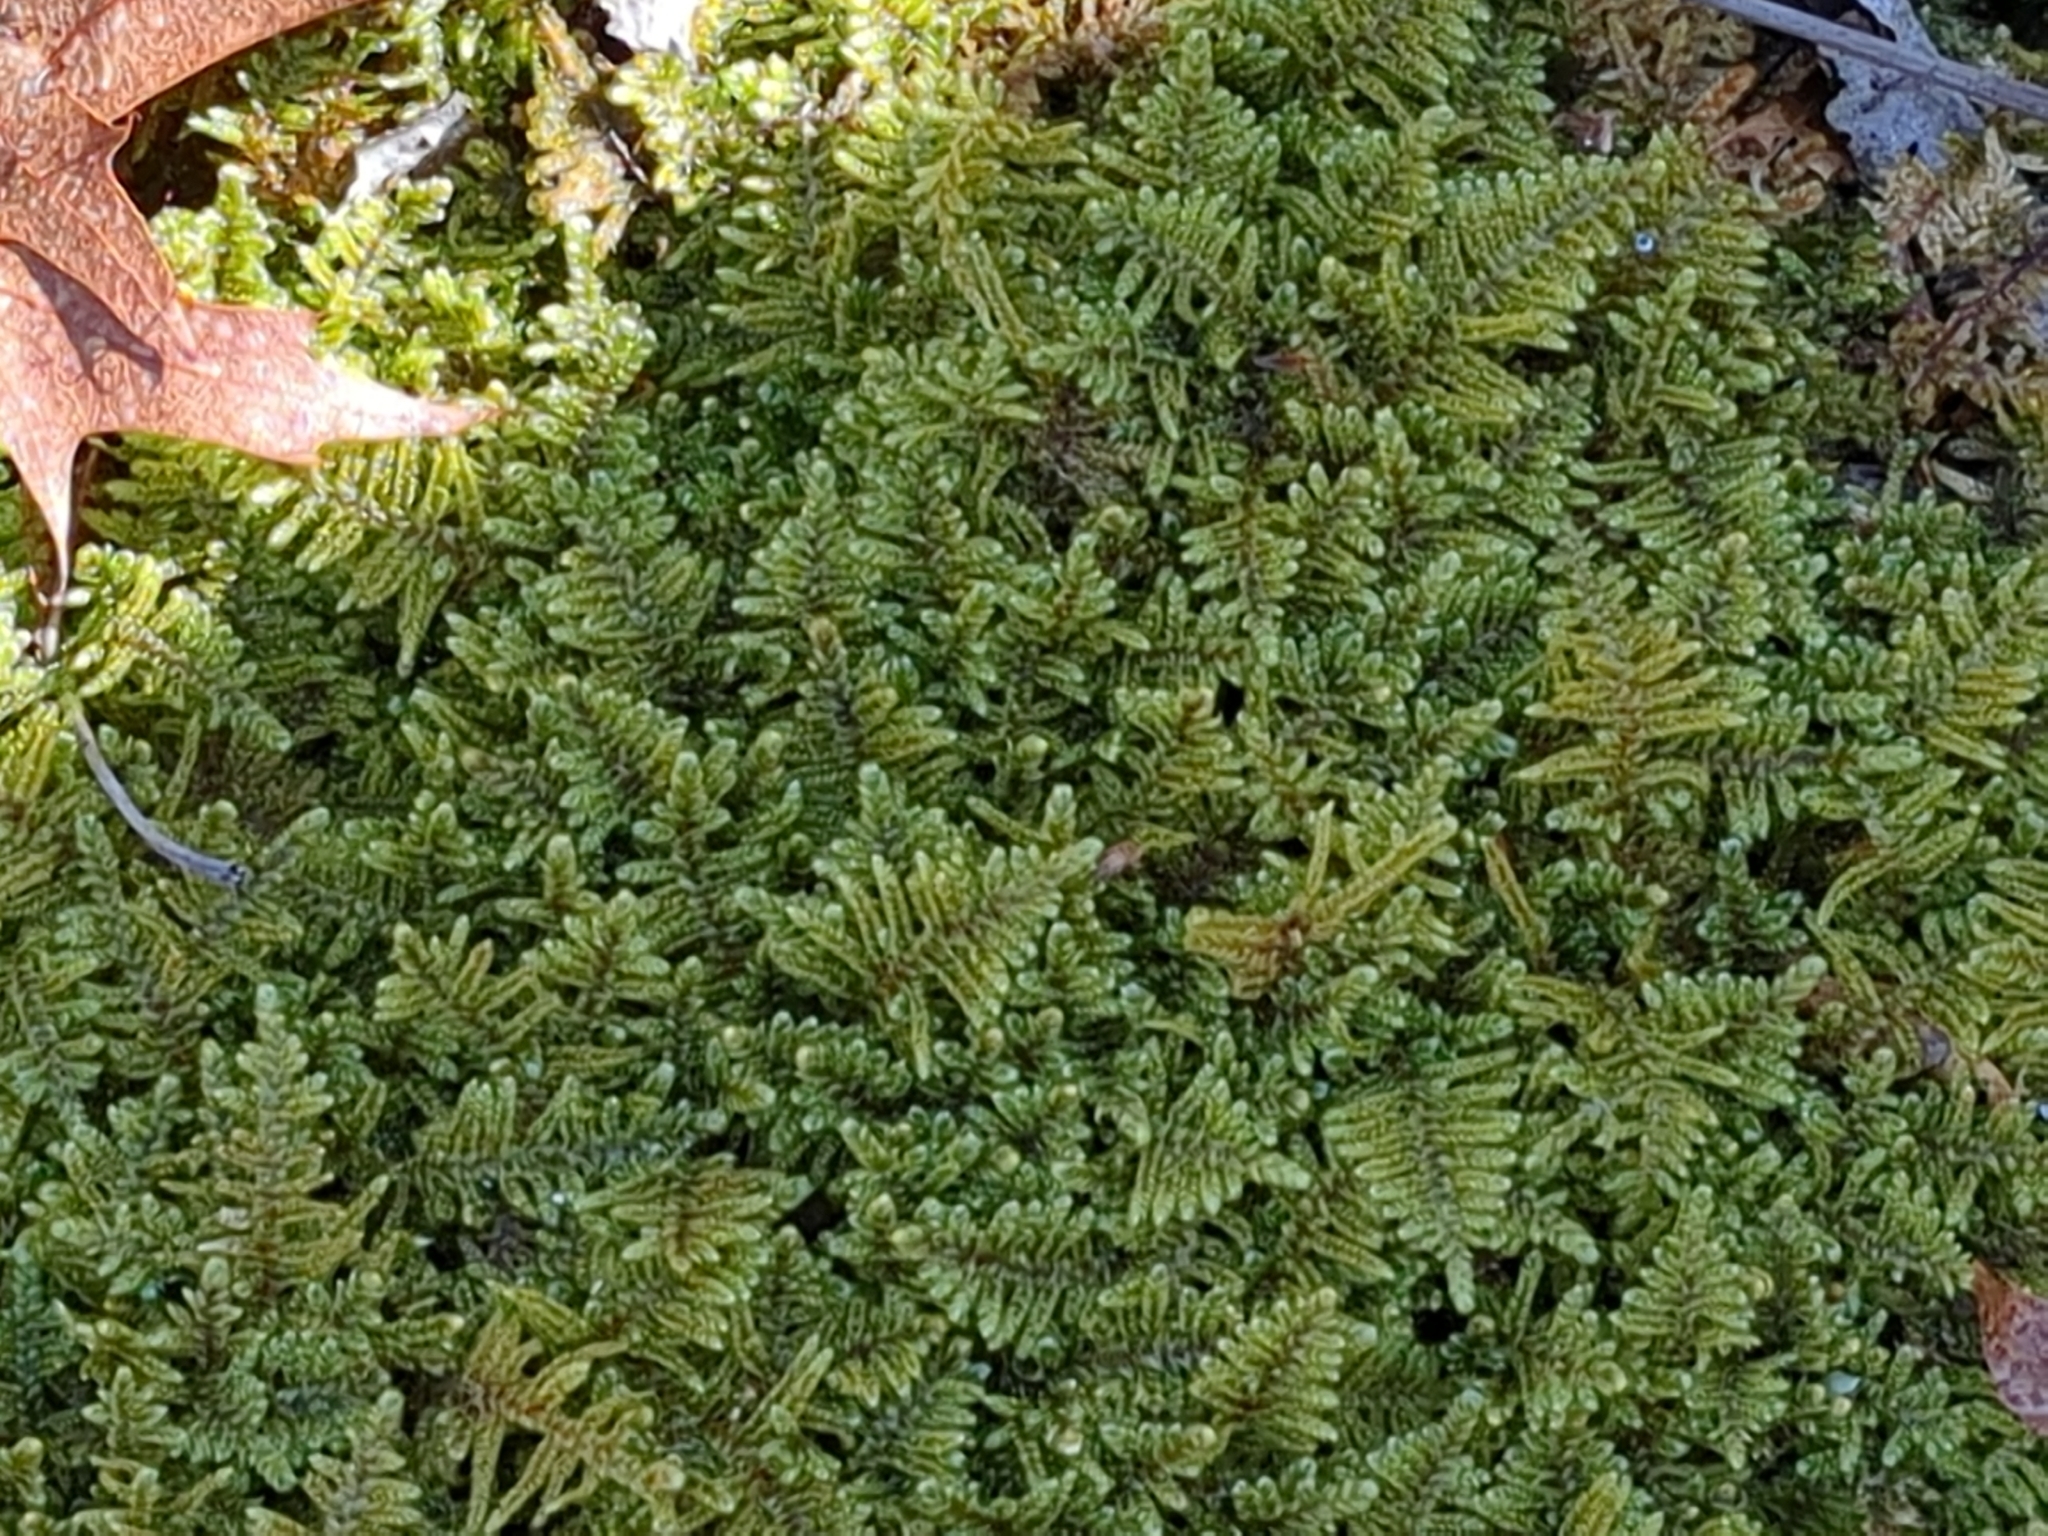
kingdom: Plantae
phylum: Bryophyta
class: Bryopsida
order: Hypnales
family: Callicladiaceae
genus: Callicladium
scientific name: Callicladium imponens
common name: Brocade moss
